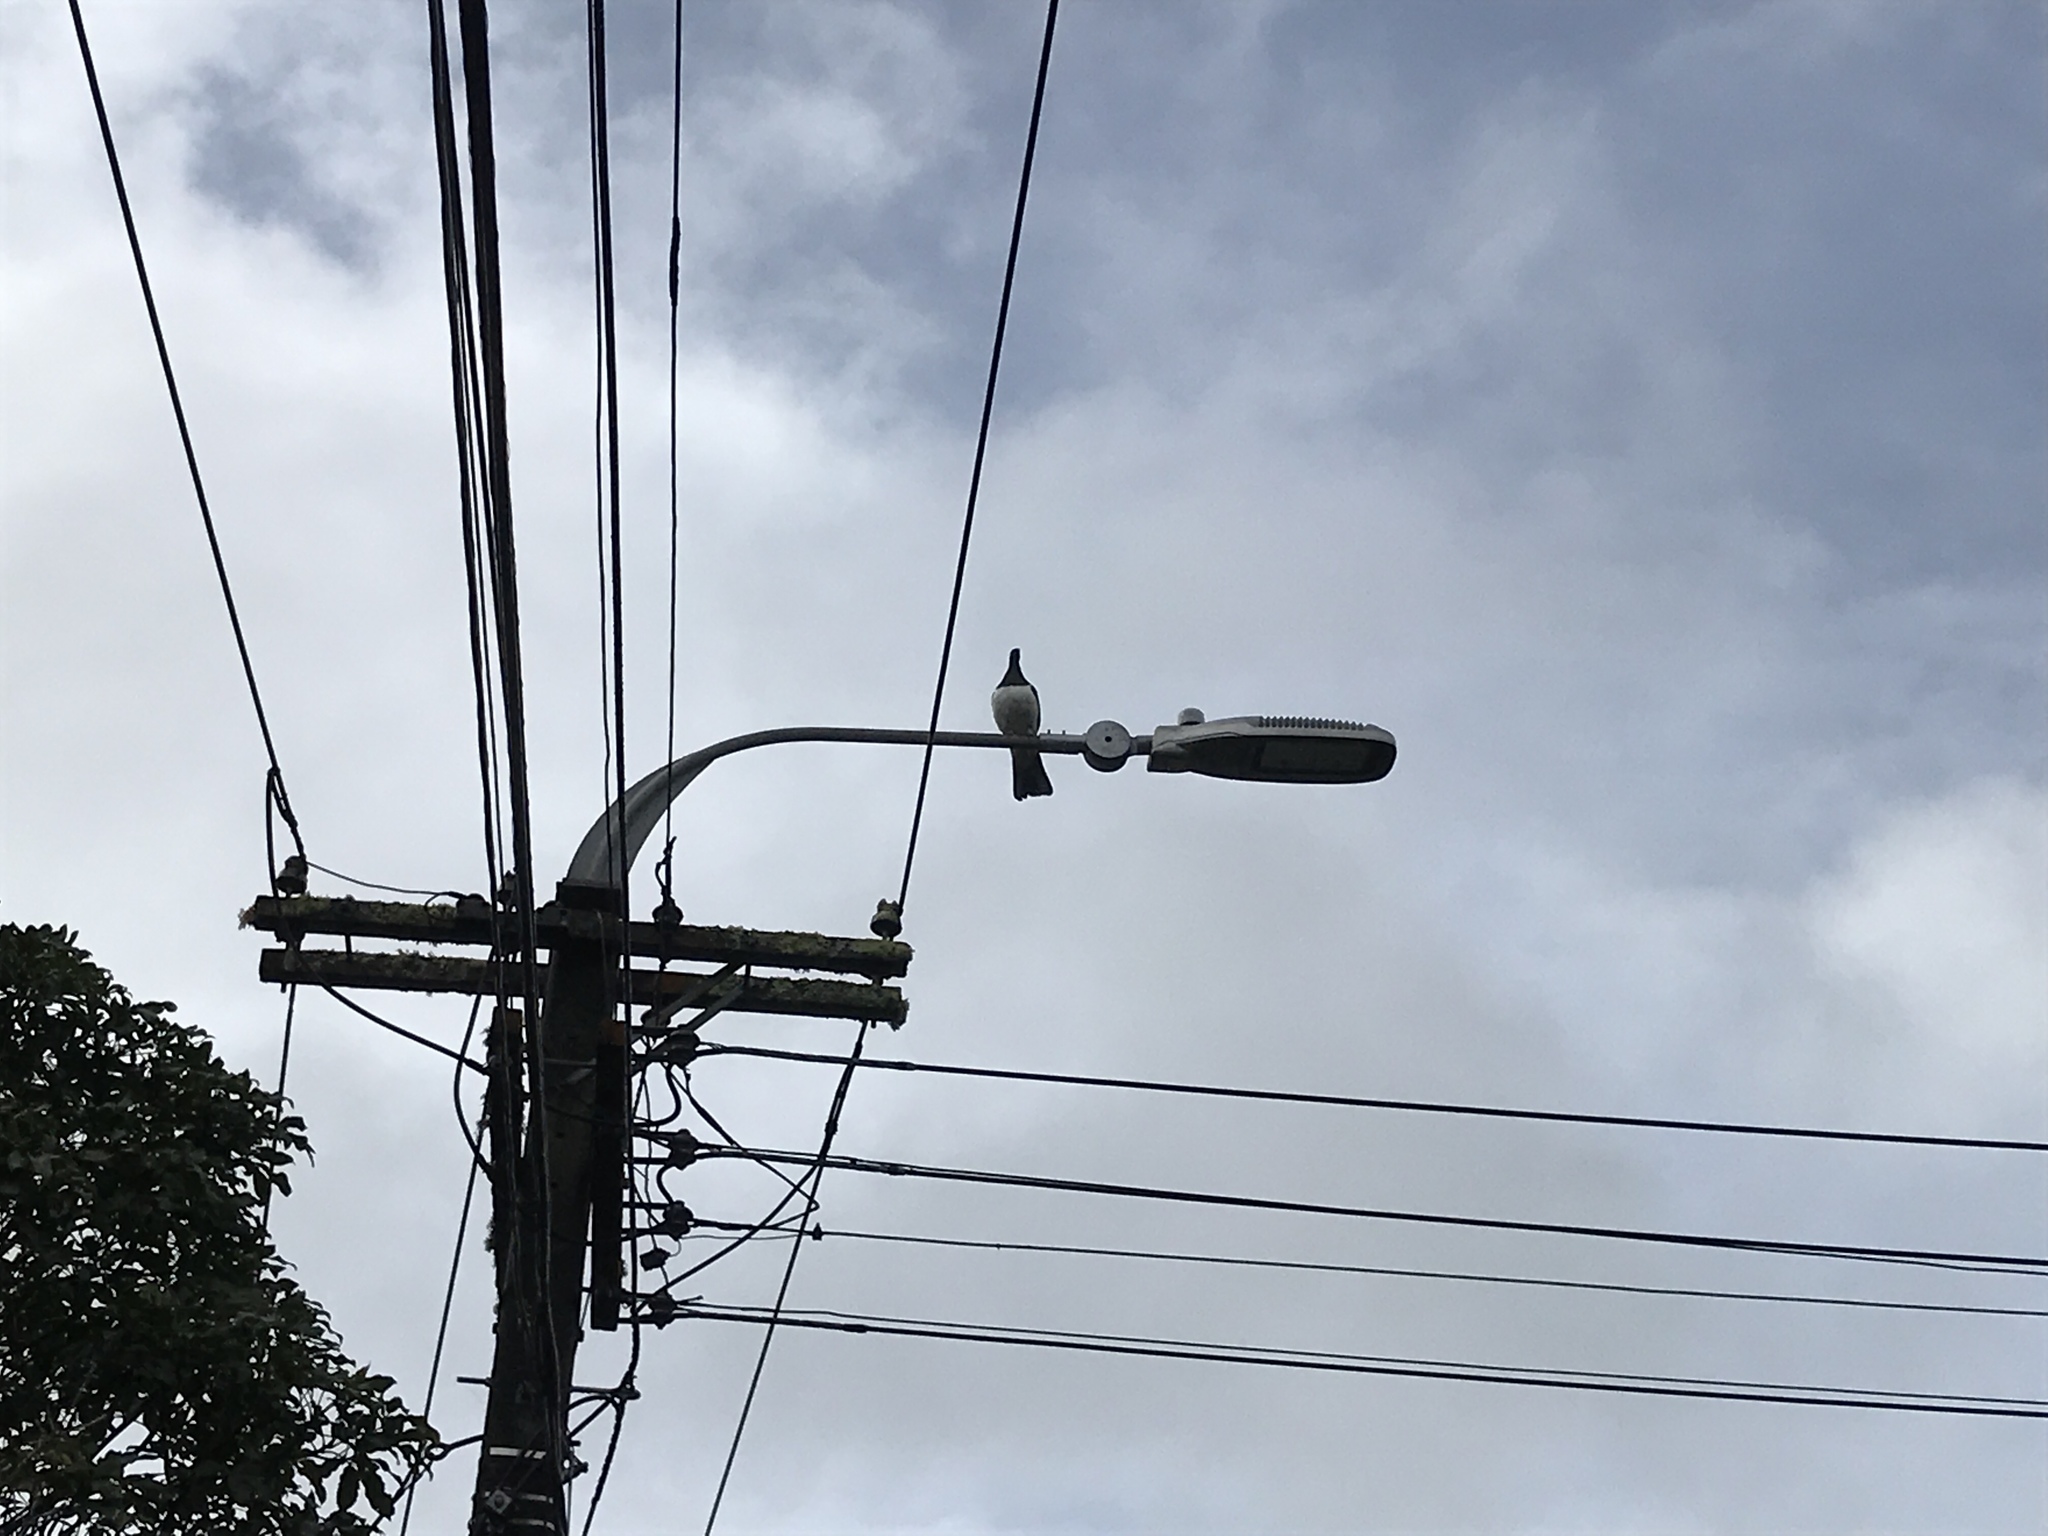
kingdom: Animalia
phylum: Chordata
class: Aves
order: Columbiformes
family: Columbidae
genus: Hemiphaga
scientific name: Hemiphaga novaeseelandiae
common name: New zealand pigeon
